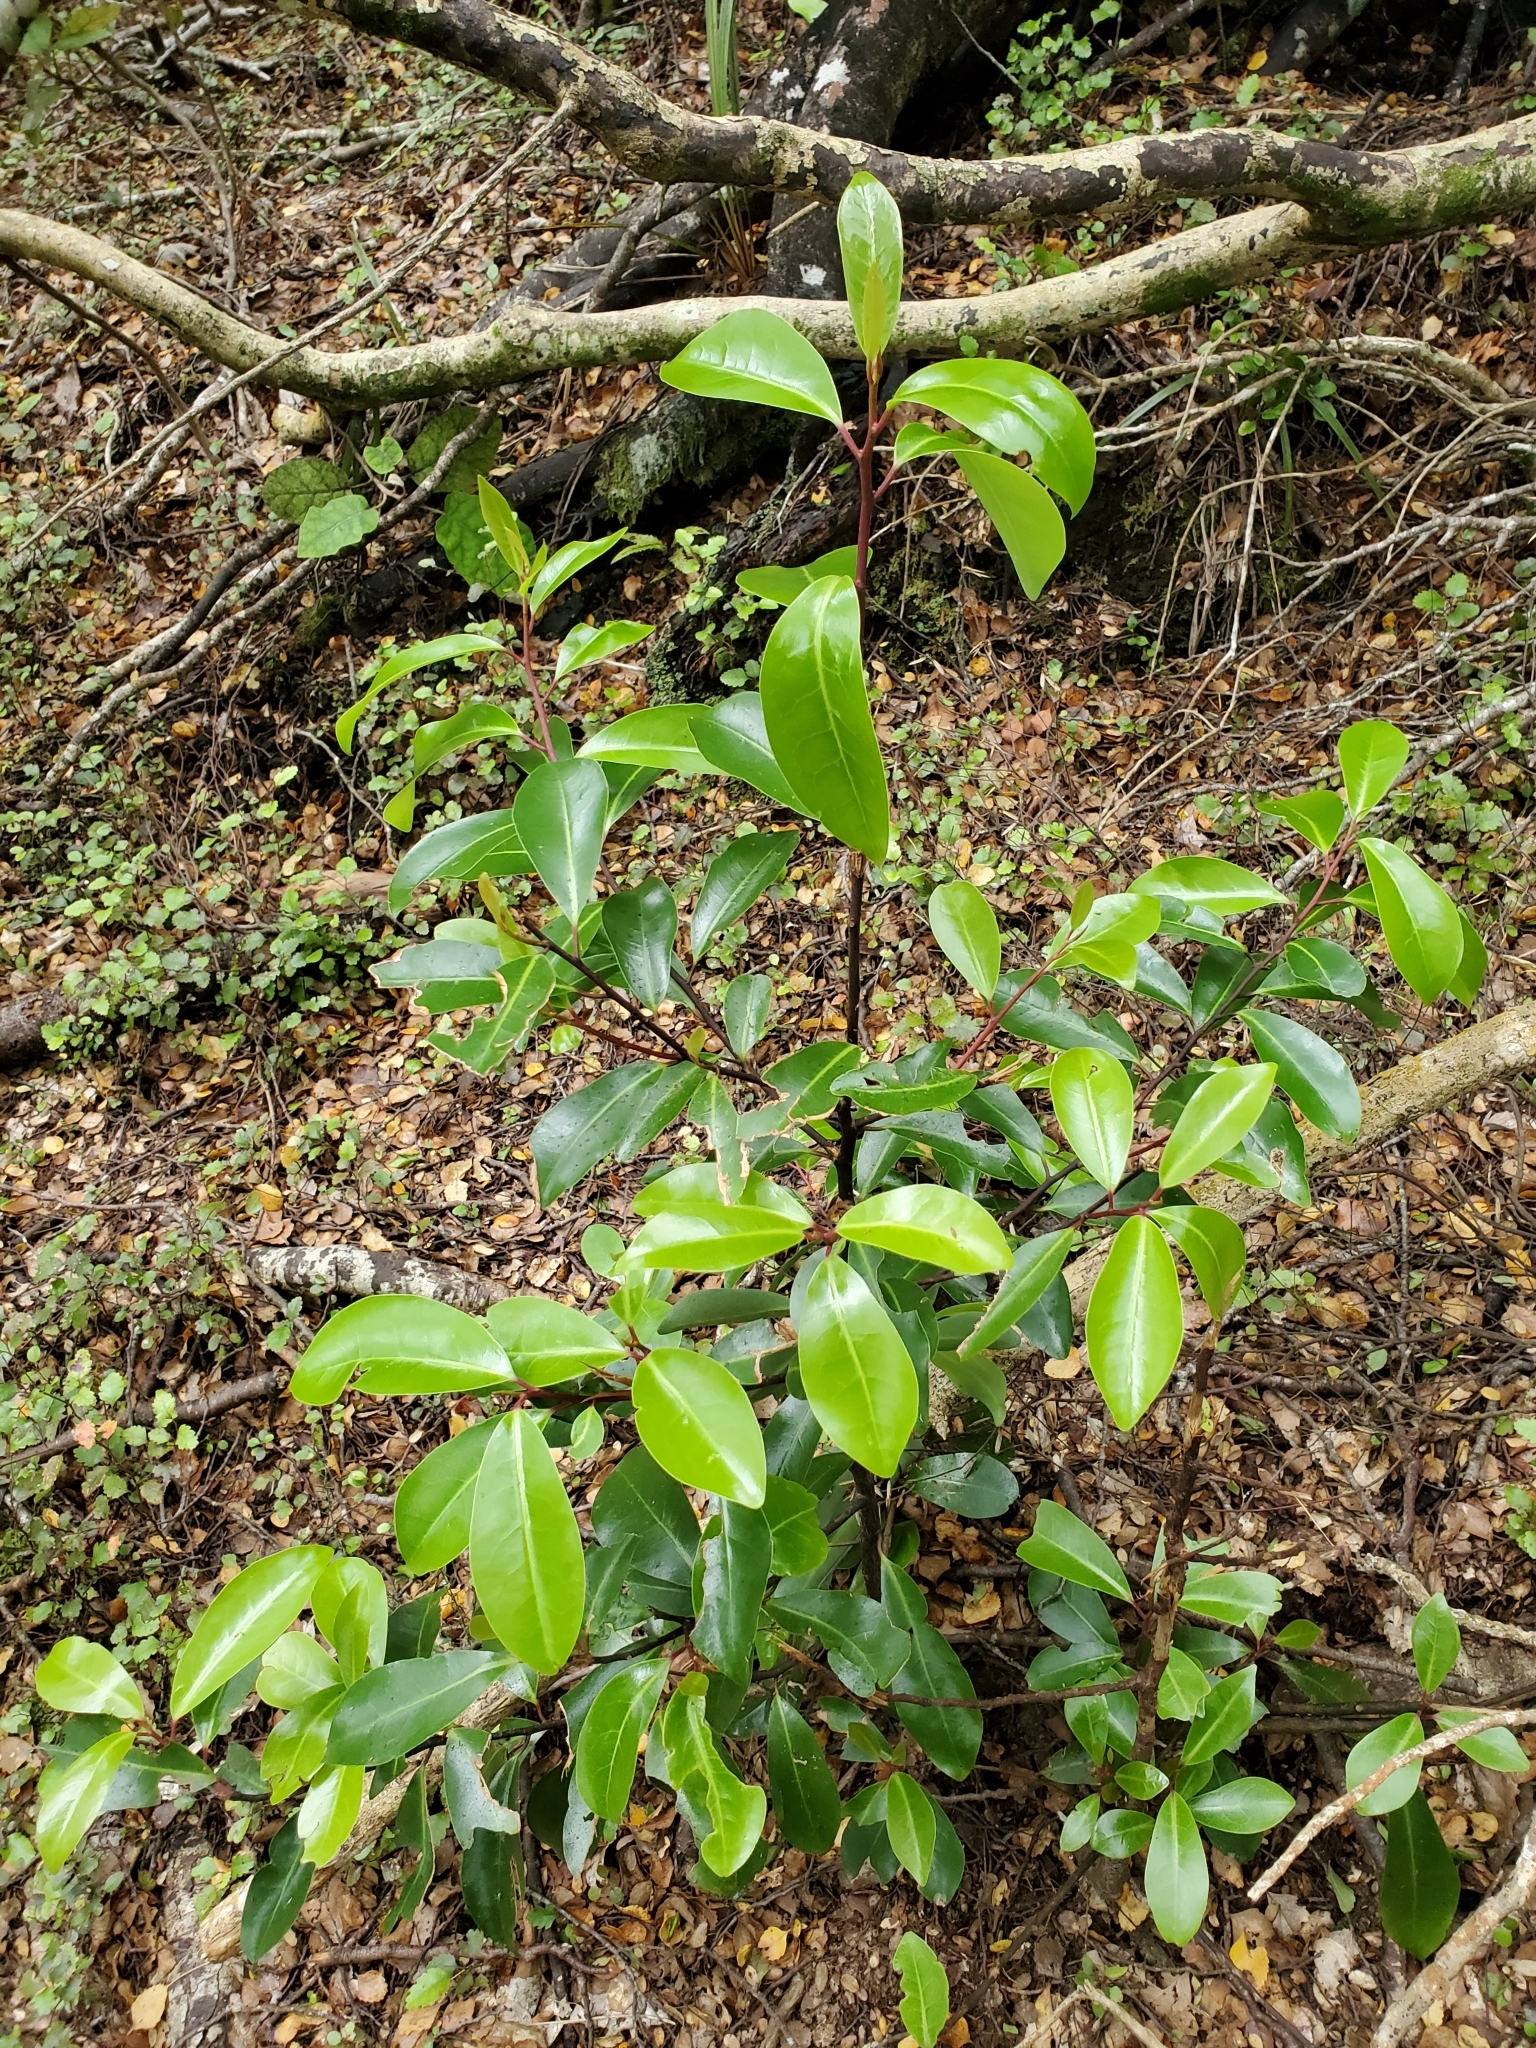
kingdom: Plantae
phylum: Tracheophyta
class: Magnoliopsida
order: Canellales
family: Winteraceae
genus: Pseudowintera
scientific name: Pseudowintera axillaris
